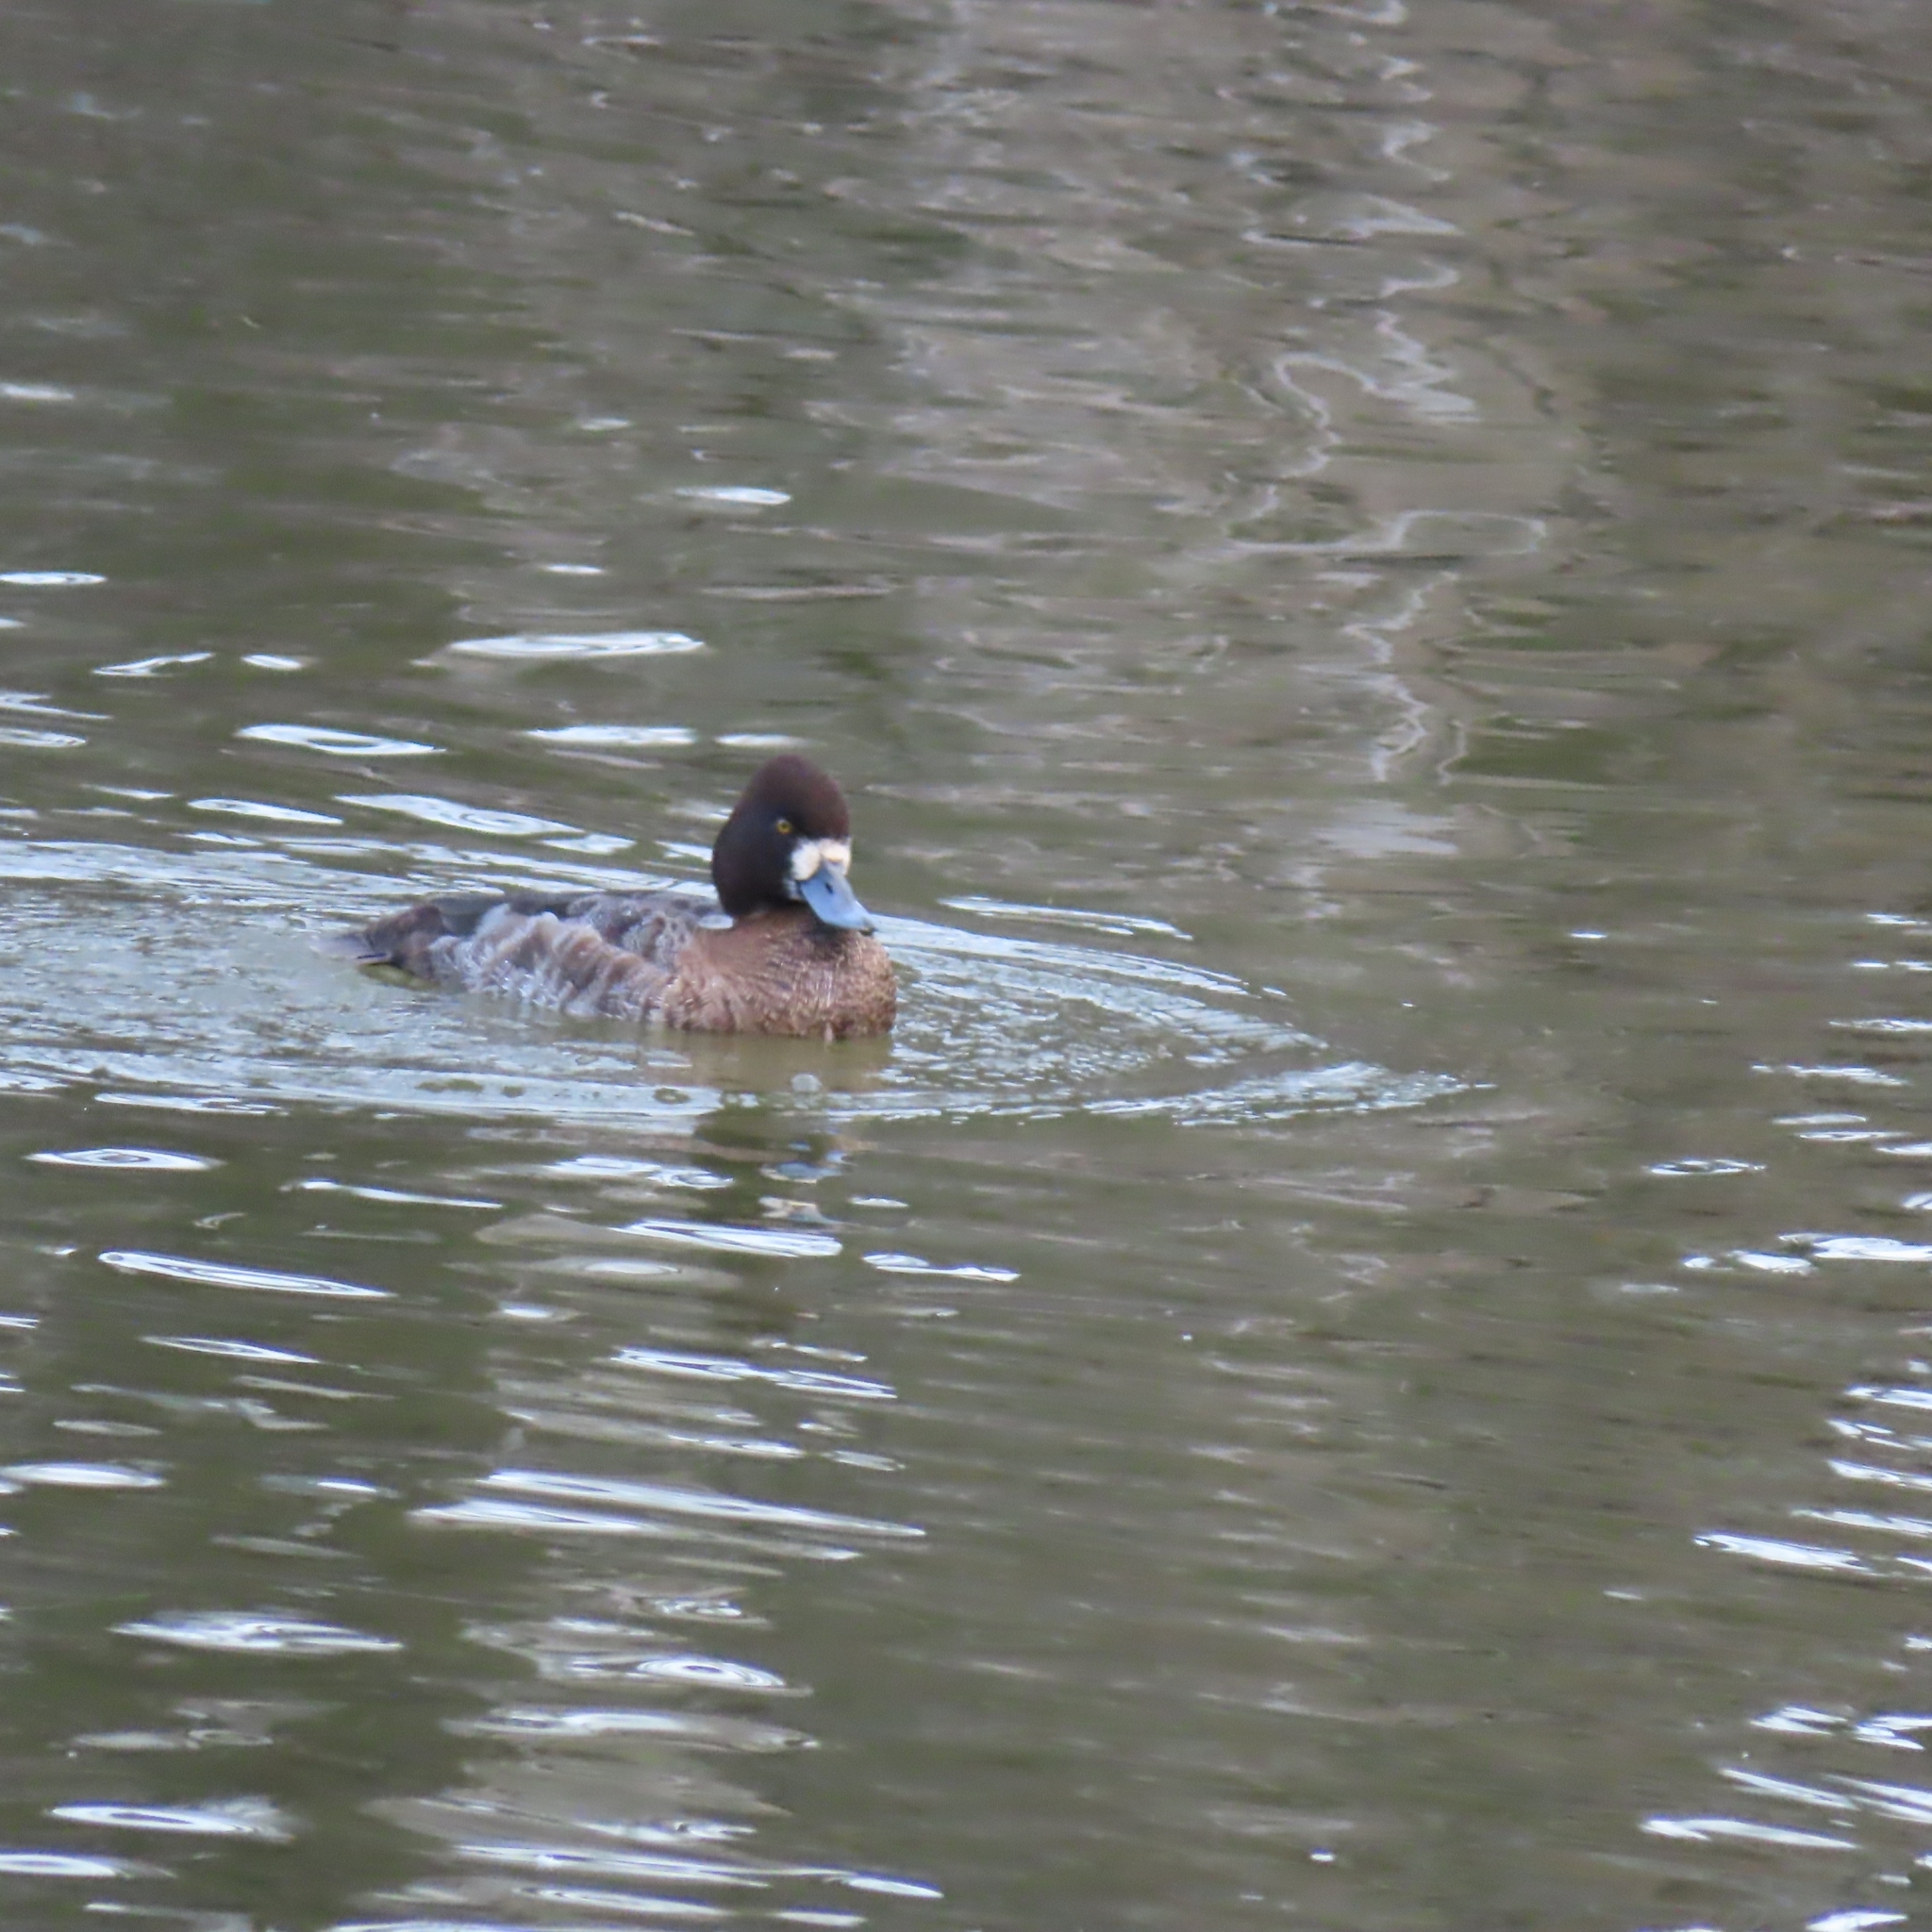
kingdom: Animalia
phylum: Chordata
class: Aves
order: Anseriformes
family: Anatidae
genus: Aythya
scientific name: Aythya affinis
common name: Lesser scaup
